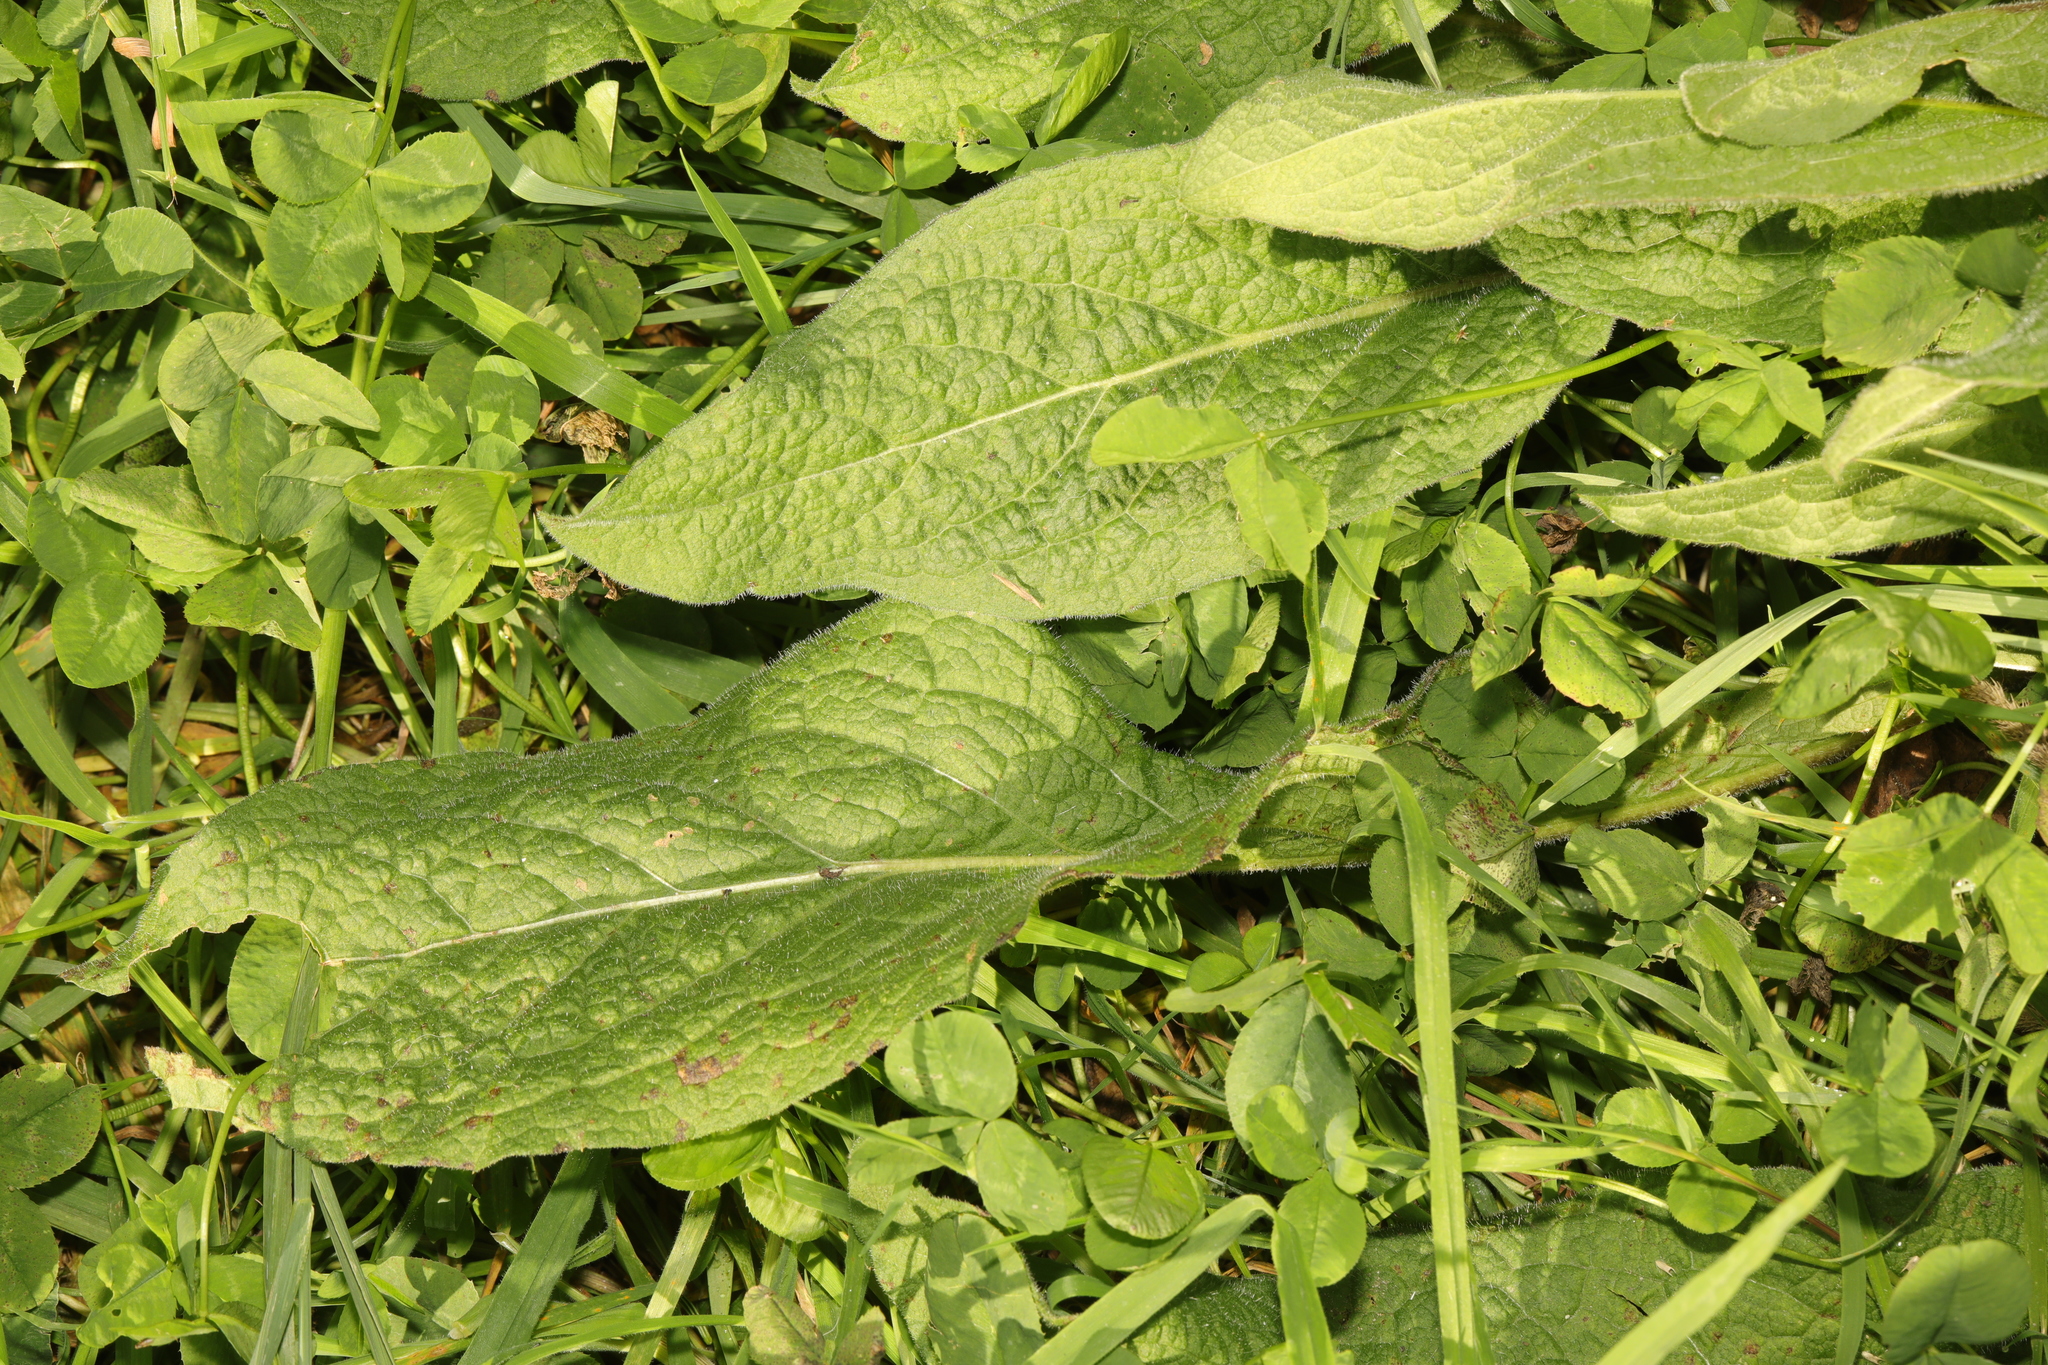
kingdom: Plantae
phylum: Tracheophyta
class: Magnoliopsida
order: Asterales
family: Asteraceae
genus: Centaurea
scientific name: Centaurea nigra
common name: Lesser knapweed
